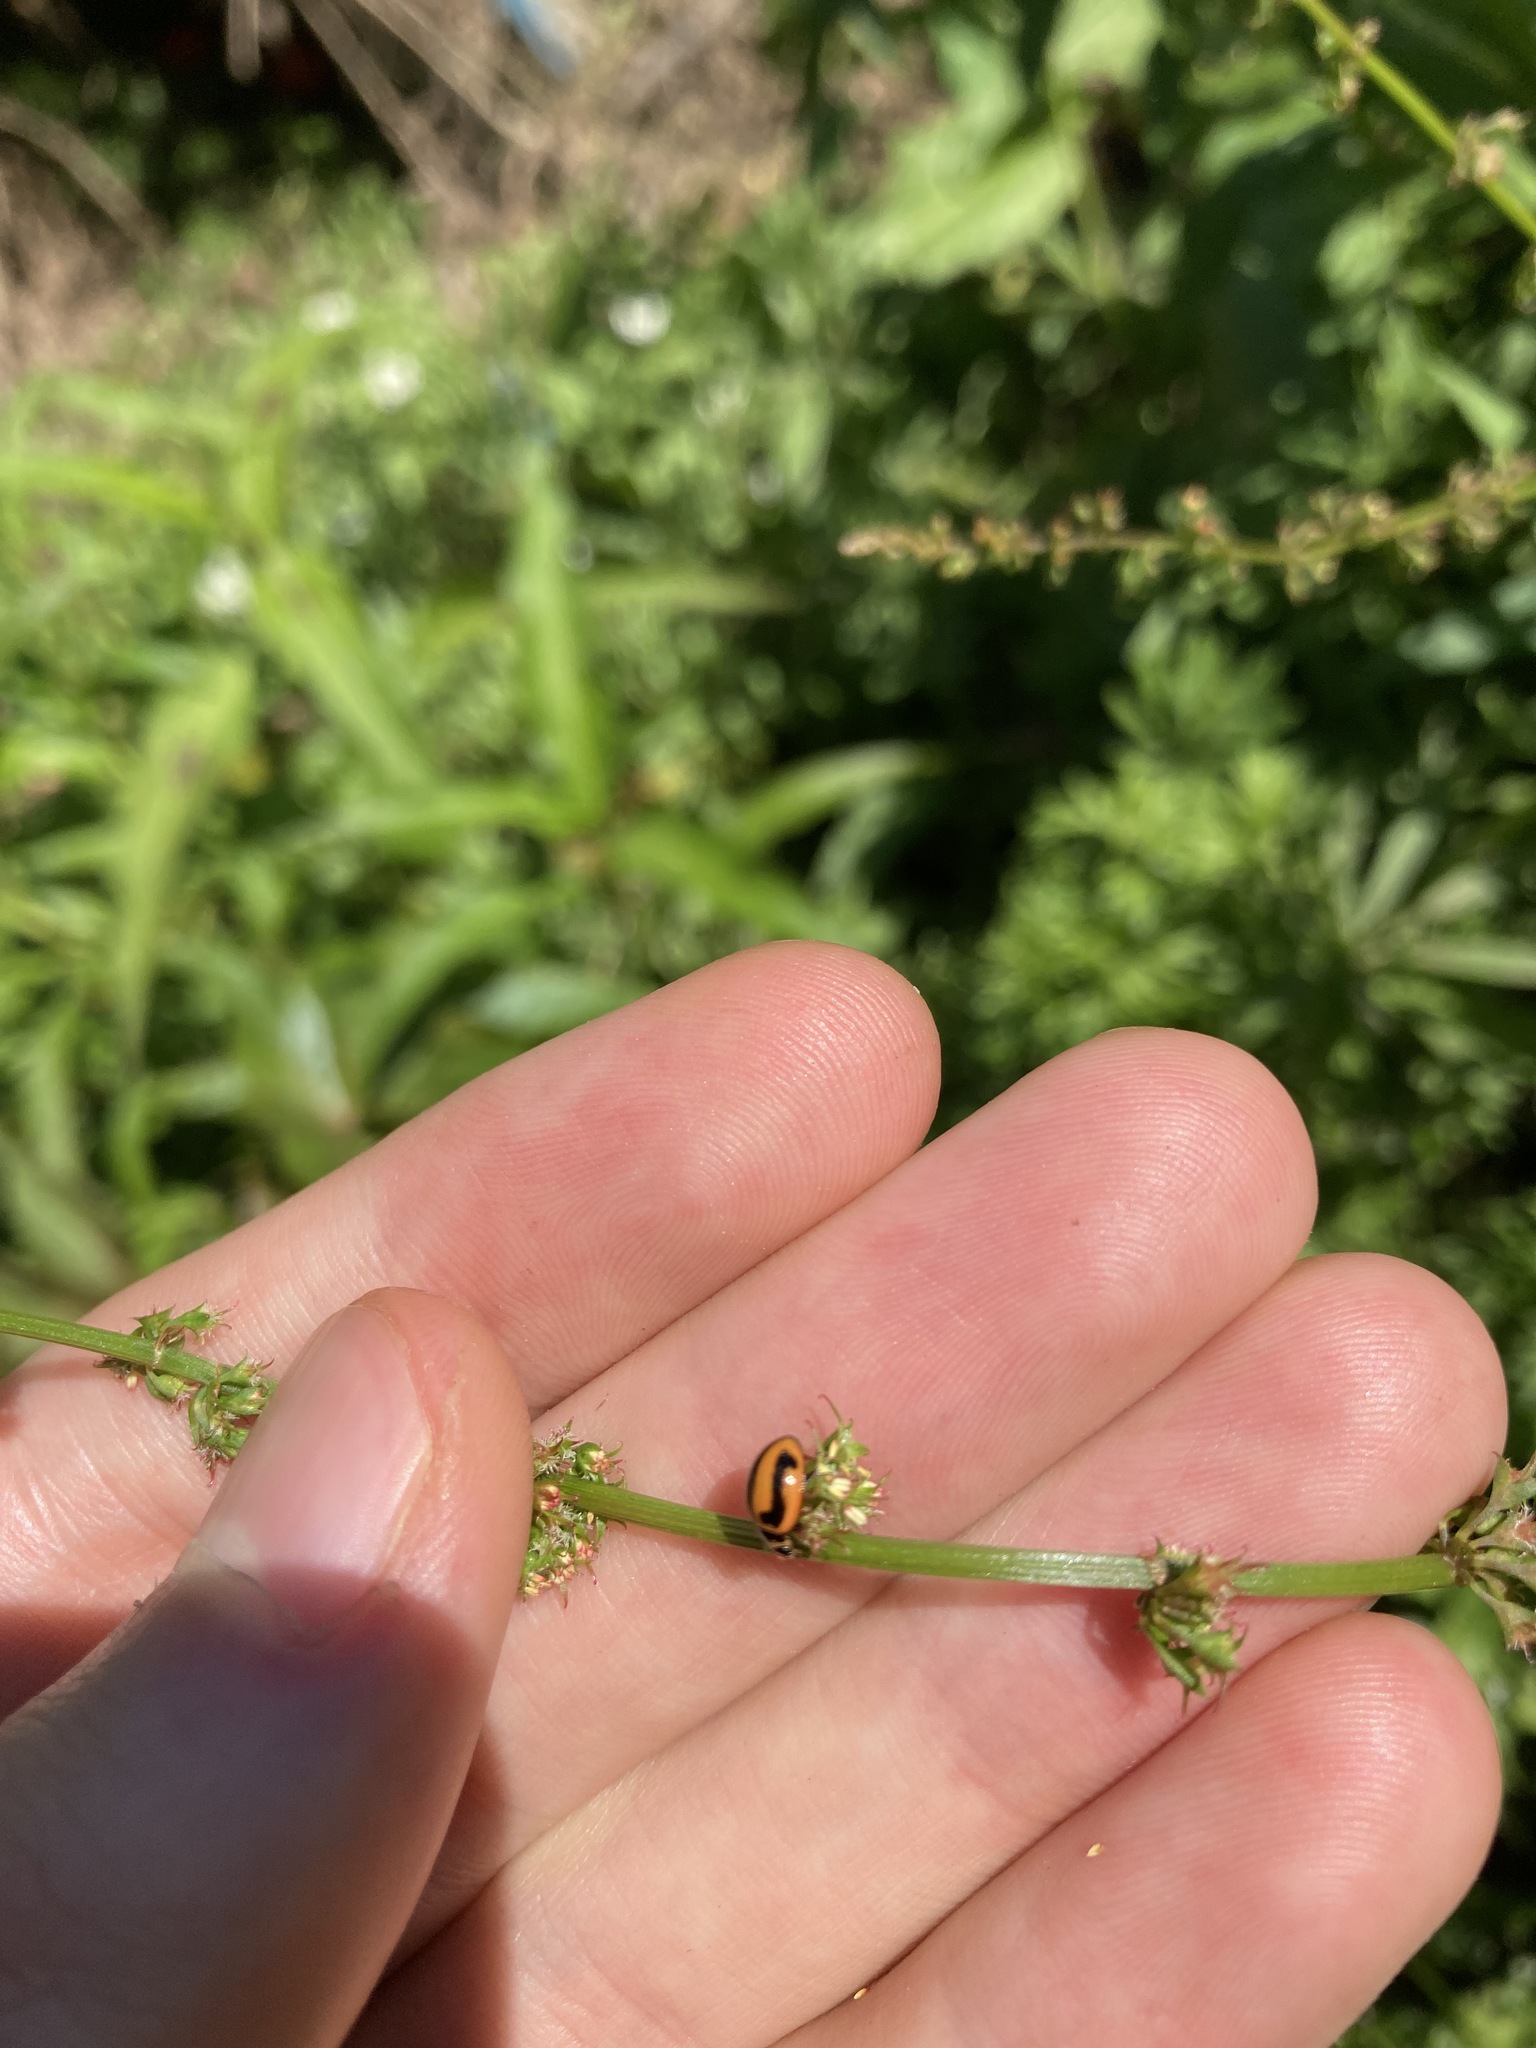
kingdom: Animalia
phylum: Arthropoda
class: Insecta
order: Coleoptera
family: Coccinellidae
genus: Micraspis
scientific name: Micraspis frenata
